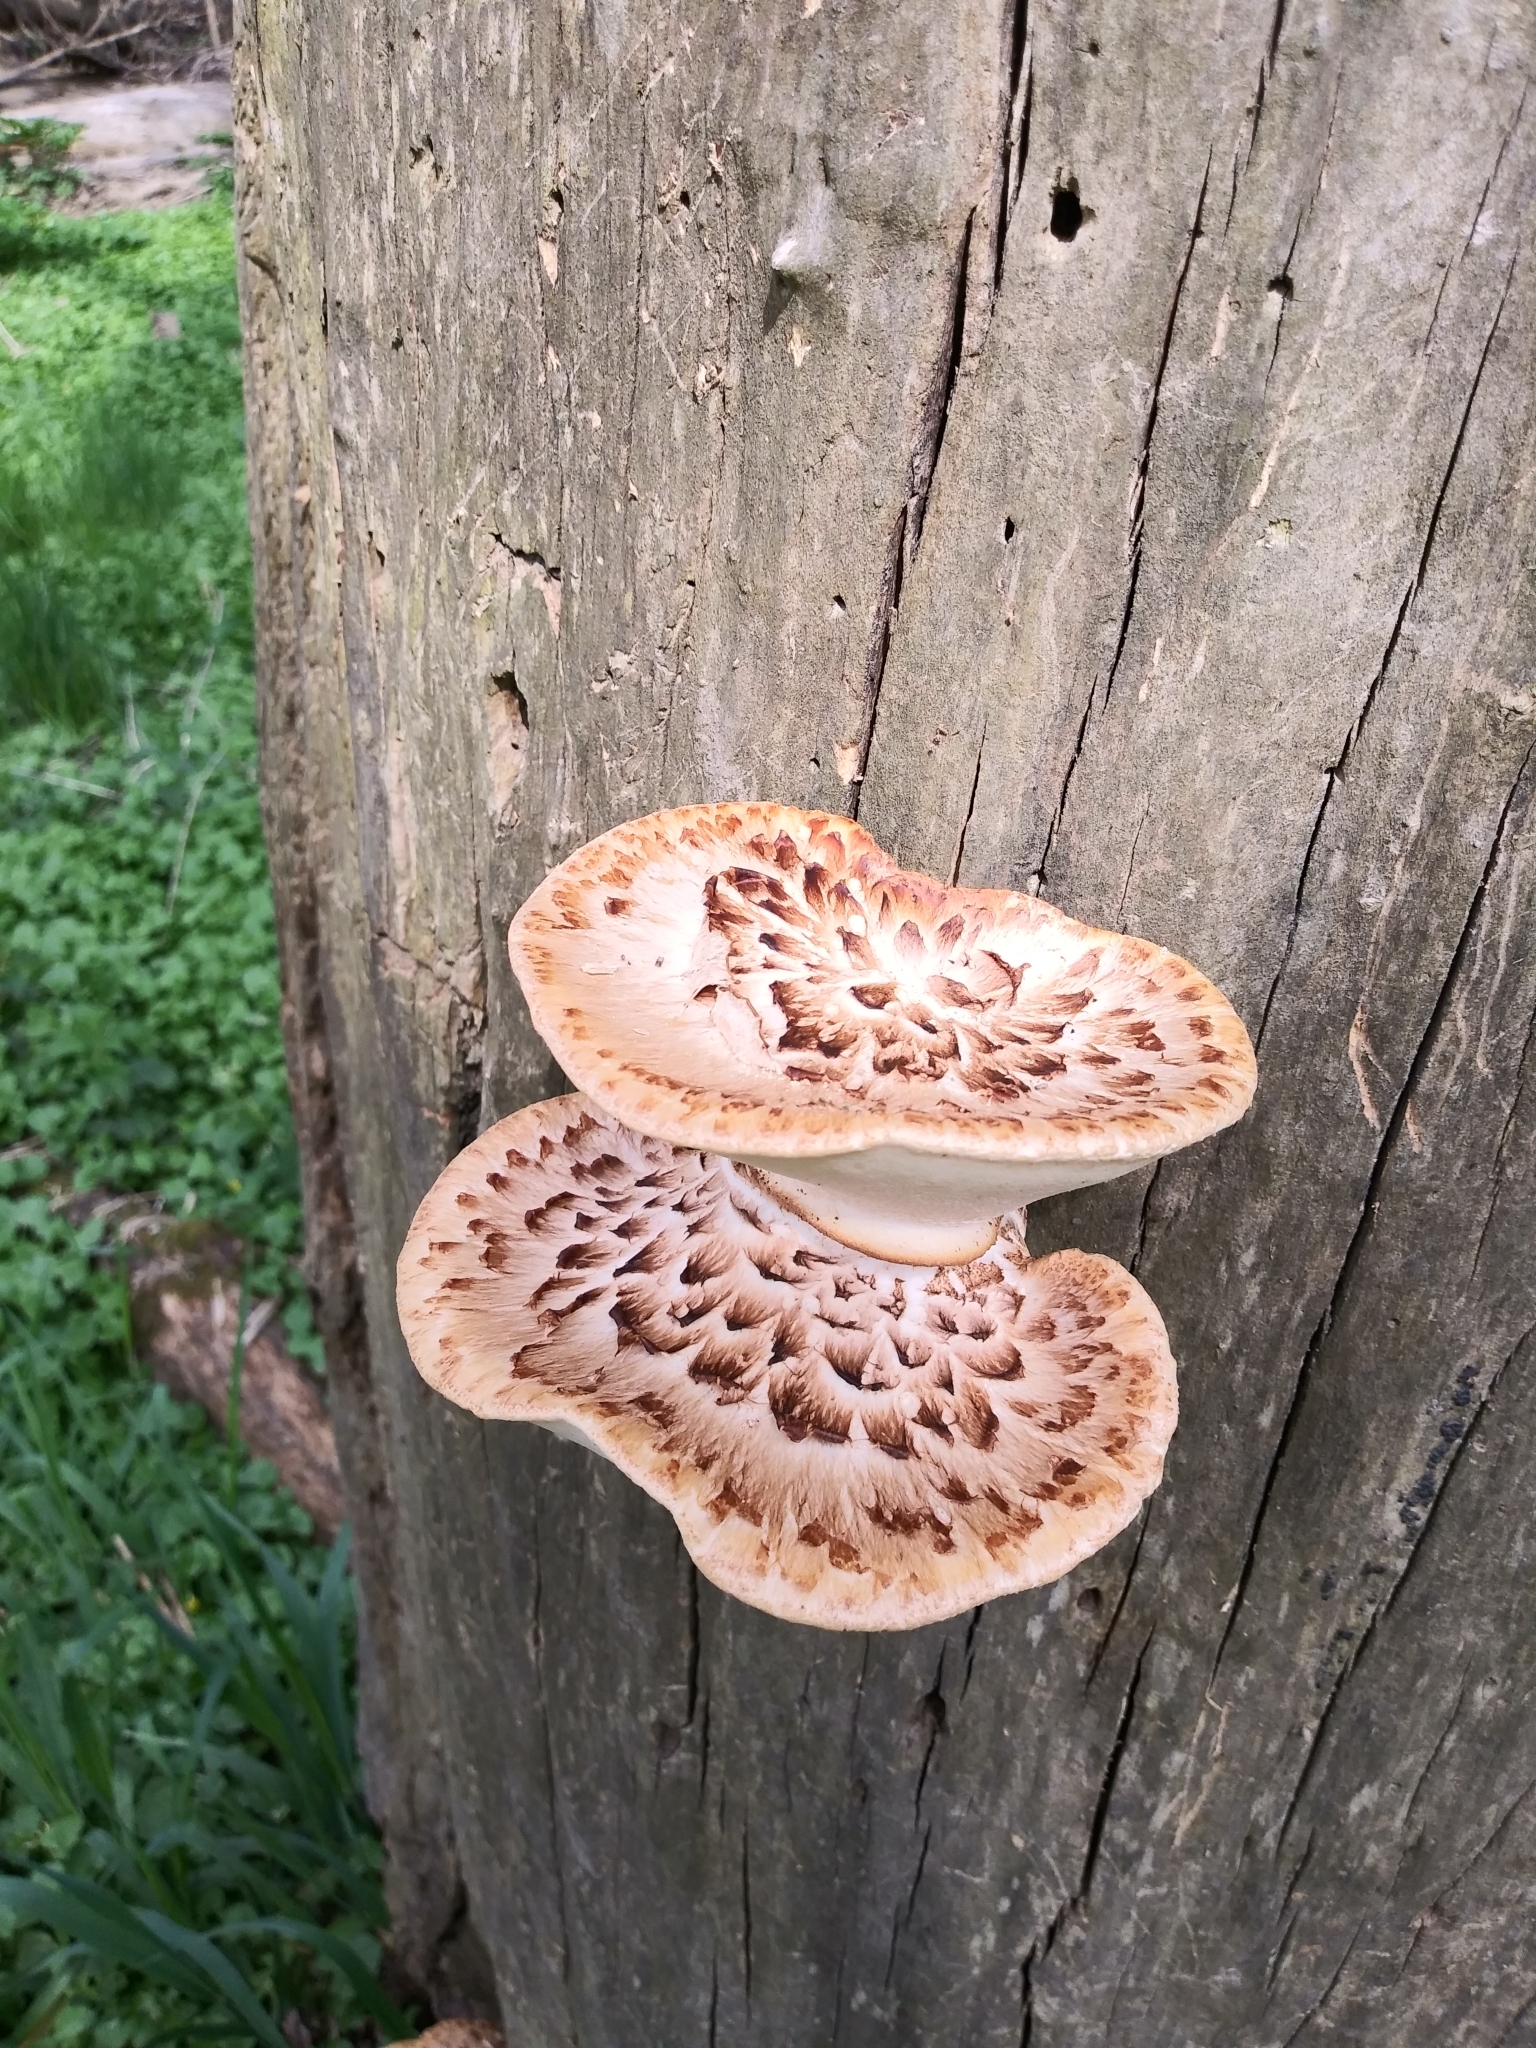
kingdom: Fungi
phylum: Basidiomycota
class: Agaricomycetes
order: Polyporales
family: Polyporaceae
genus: Cerioporus
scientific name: Cerioporus squamosus
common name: Dryad's saddle
